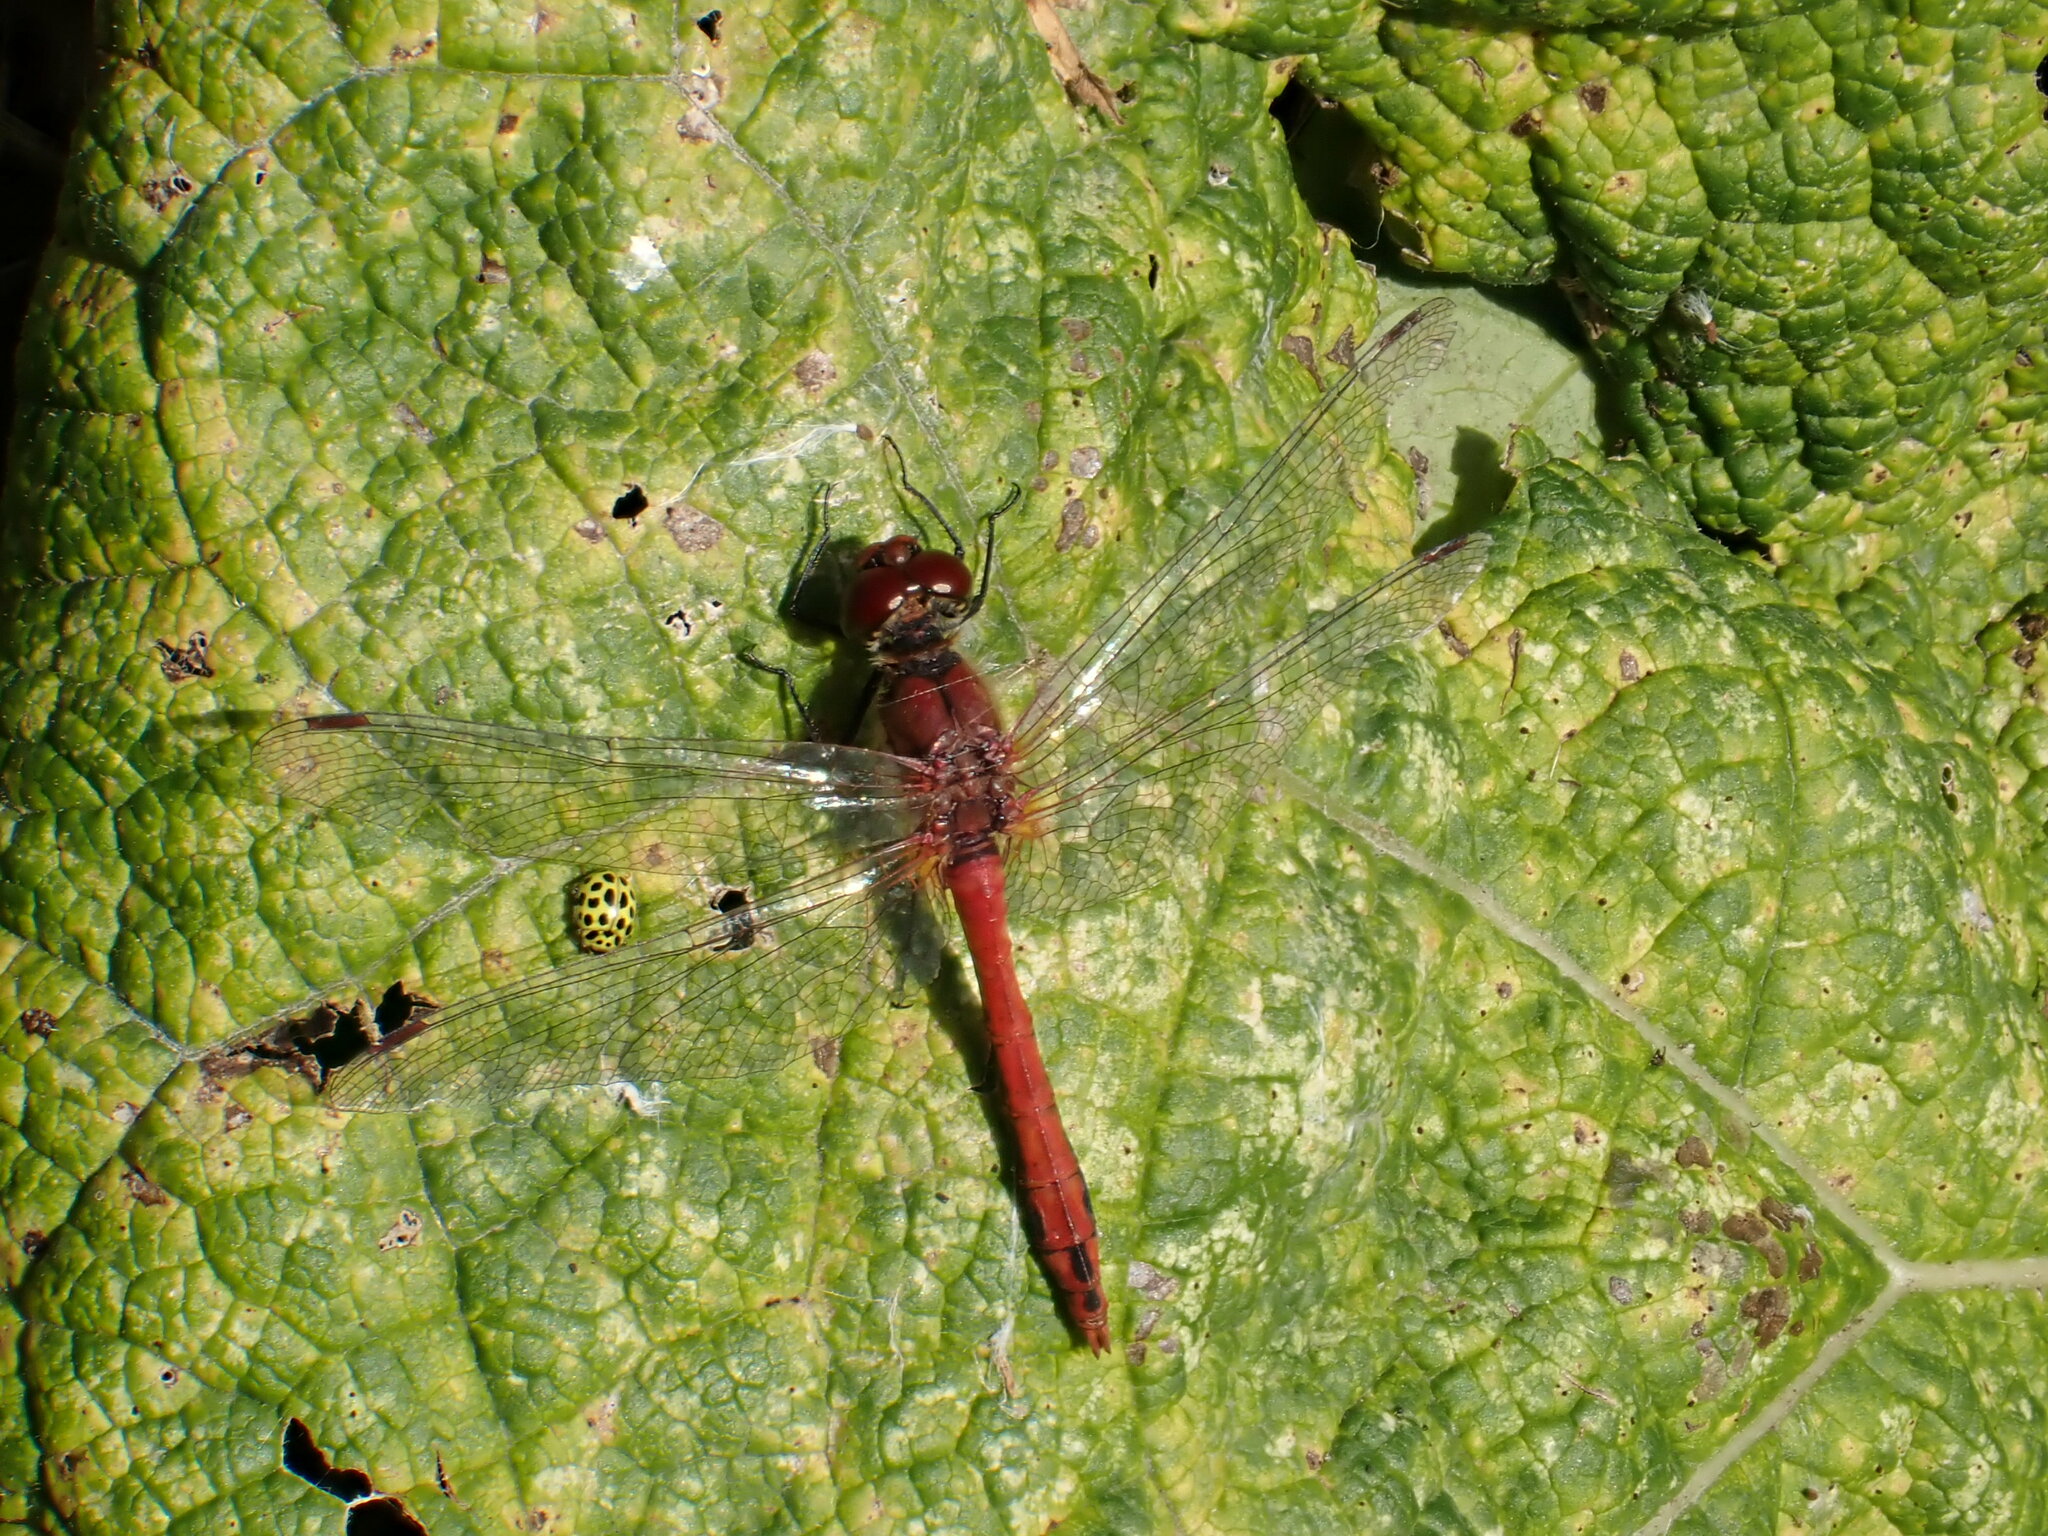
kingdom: Animalia
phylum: Arthropoda
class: Insecta
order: Odonata
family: Libellulidae
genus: Sympetrum
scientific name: Sympetrum sanguineum
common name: Ruddy darter
